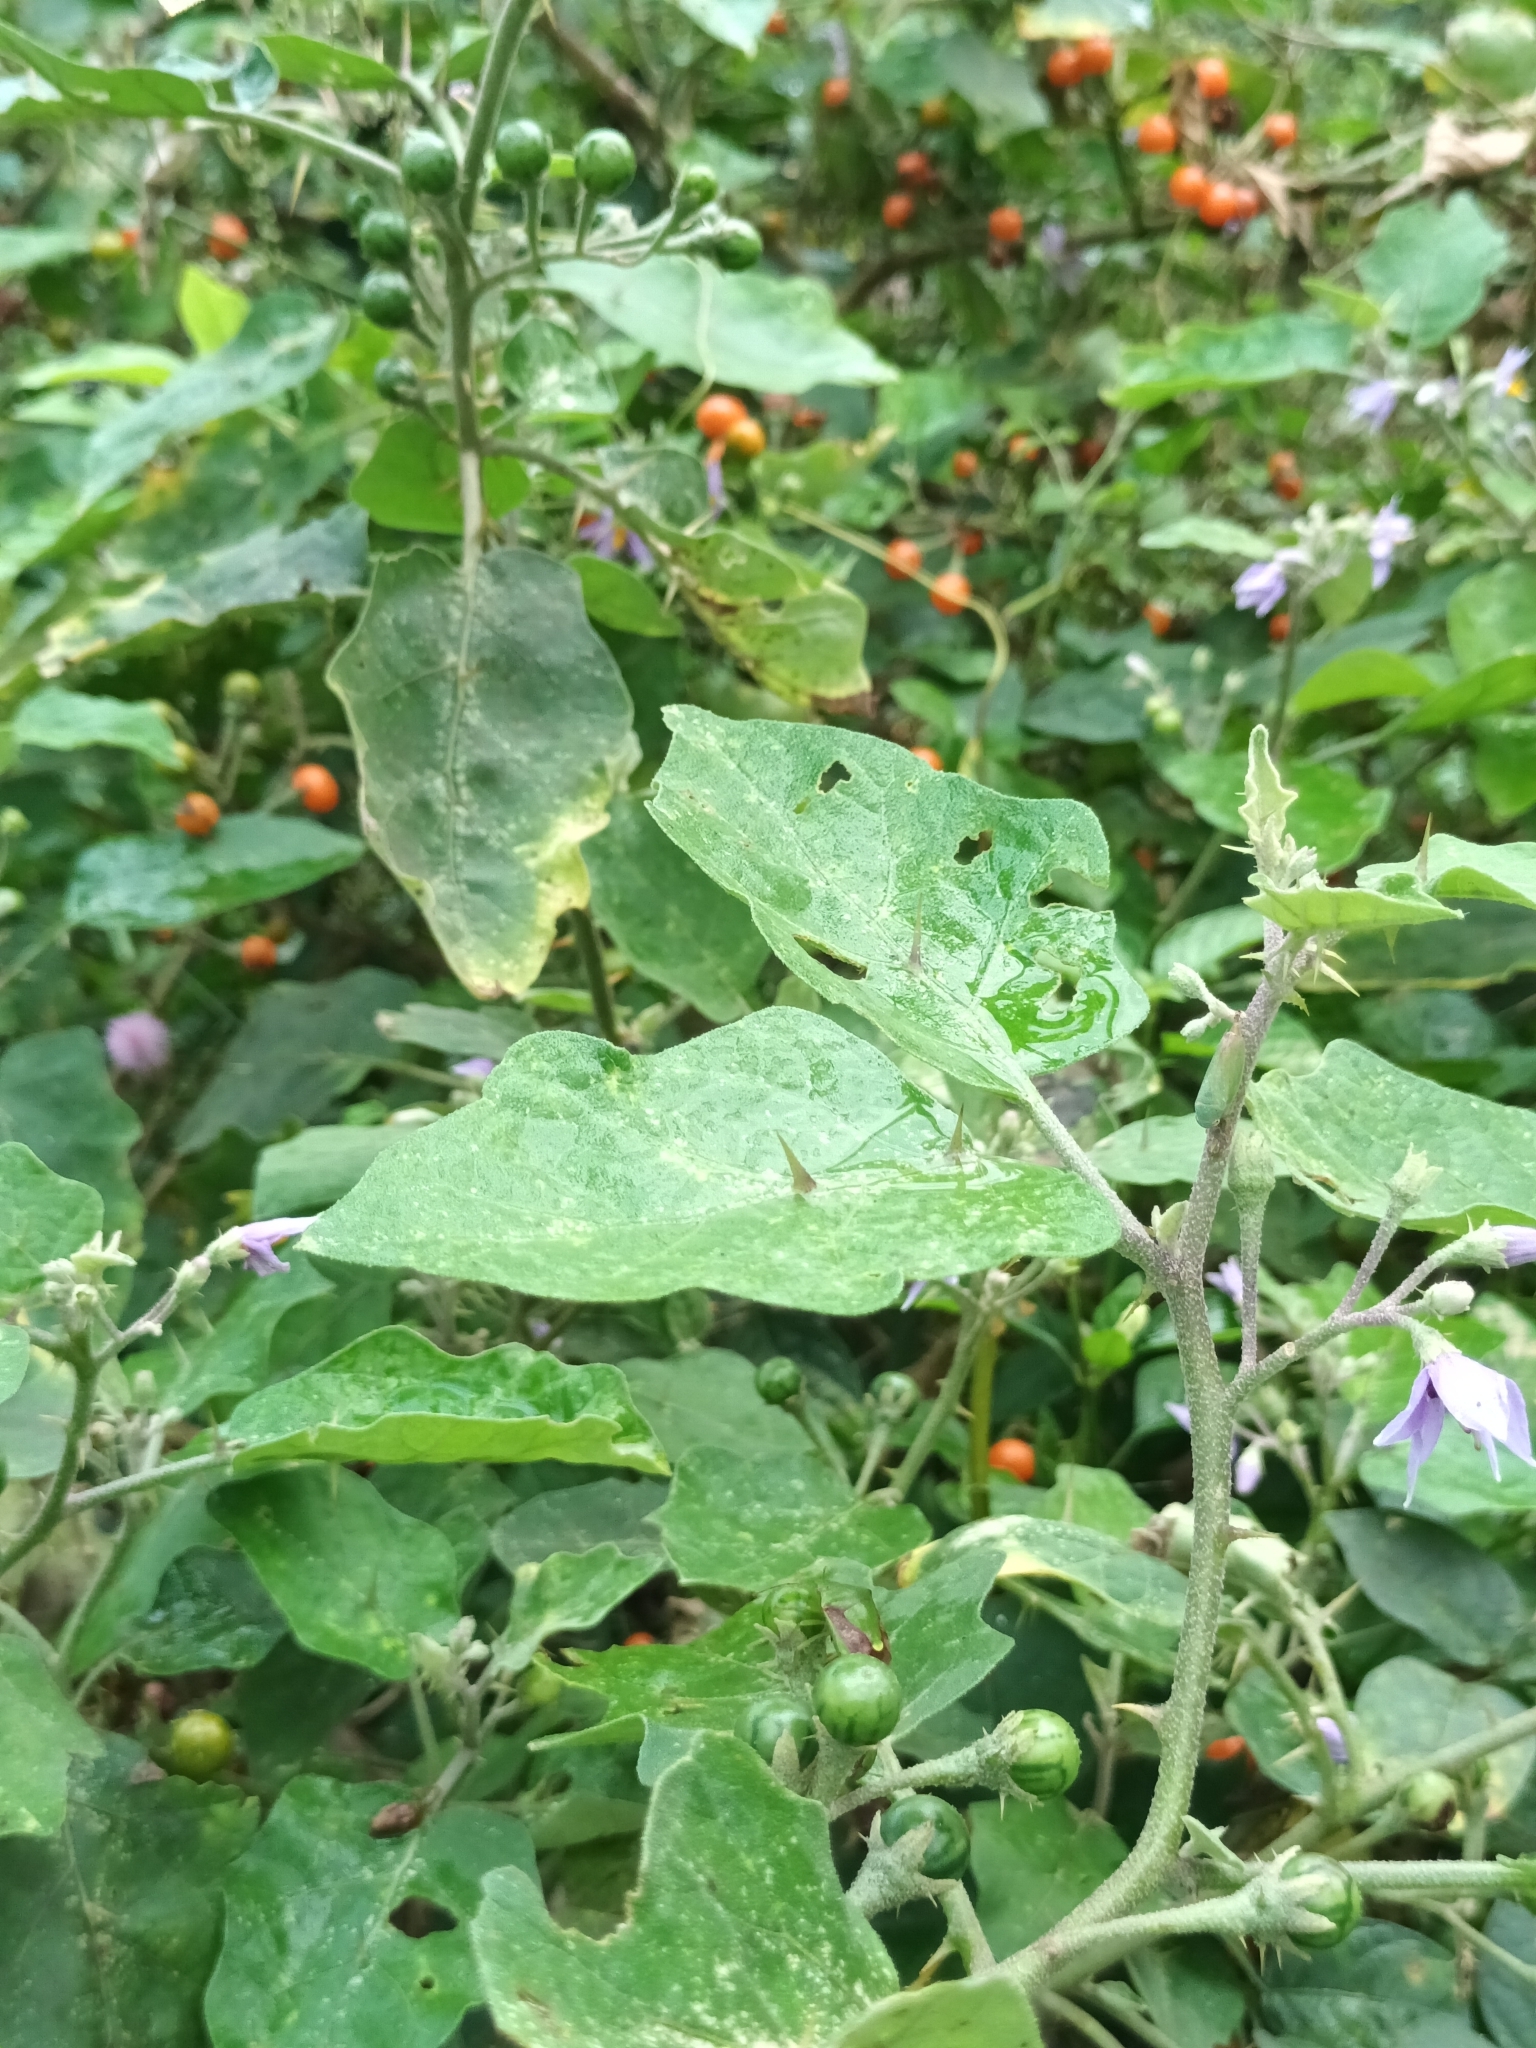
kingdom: Plantae
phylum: Tracheophyta
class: Magnoliopsida
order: Solanales
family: Solanaceae
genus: Solanum
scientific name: Solanum violaceum
